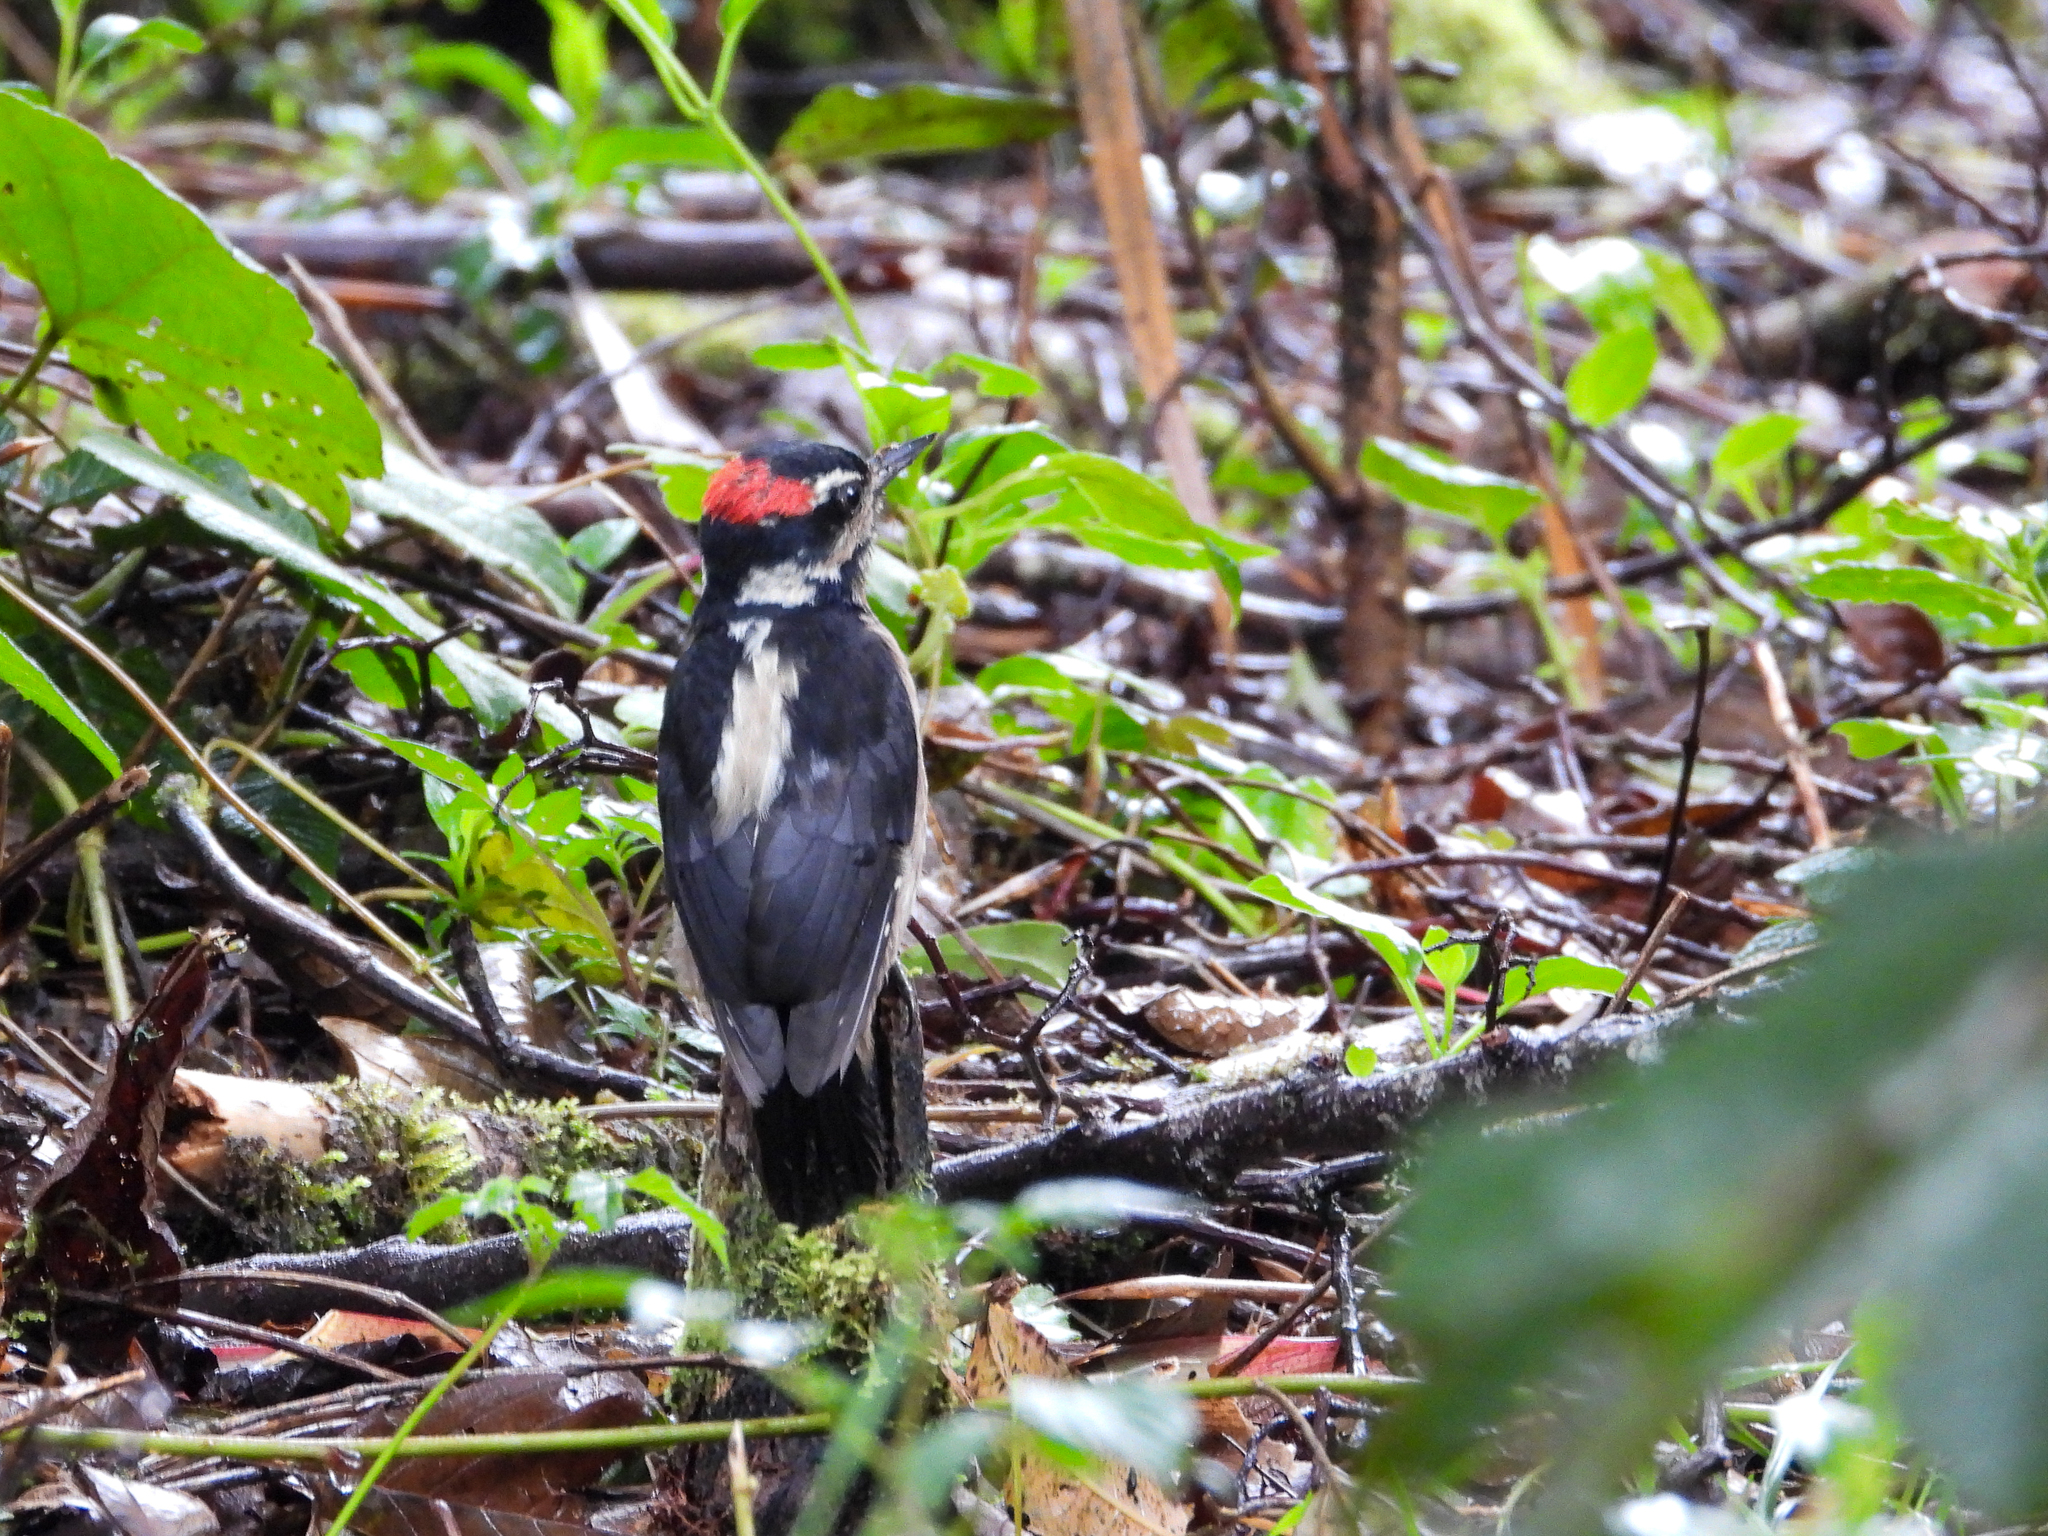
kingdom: Animalia
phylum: Chordata
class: Aves
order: Piciformes
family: Picidae
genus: Leuconotopicus
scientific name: Leuconotopicus villosus
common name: Hairy woodpecker
